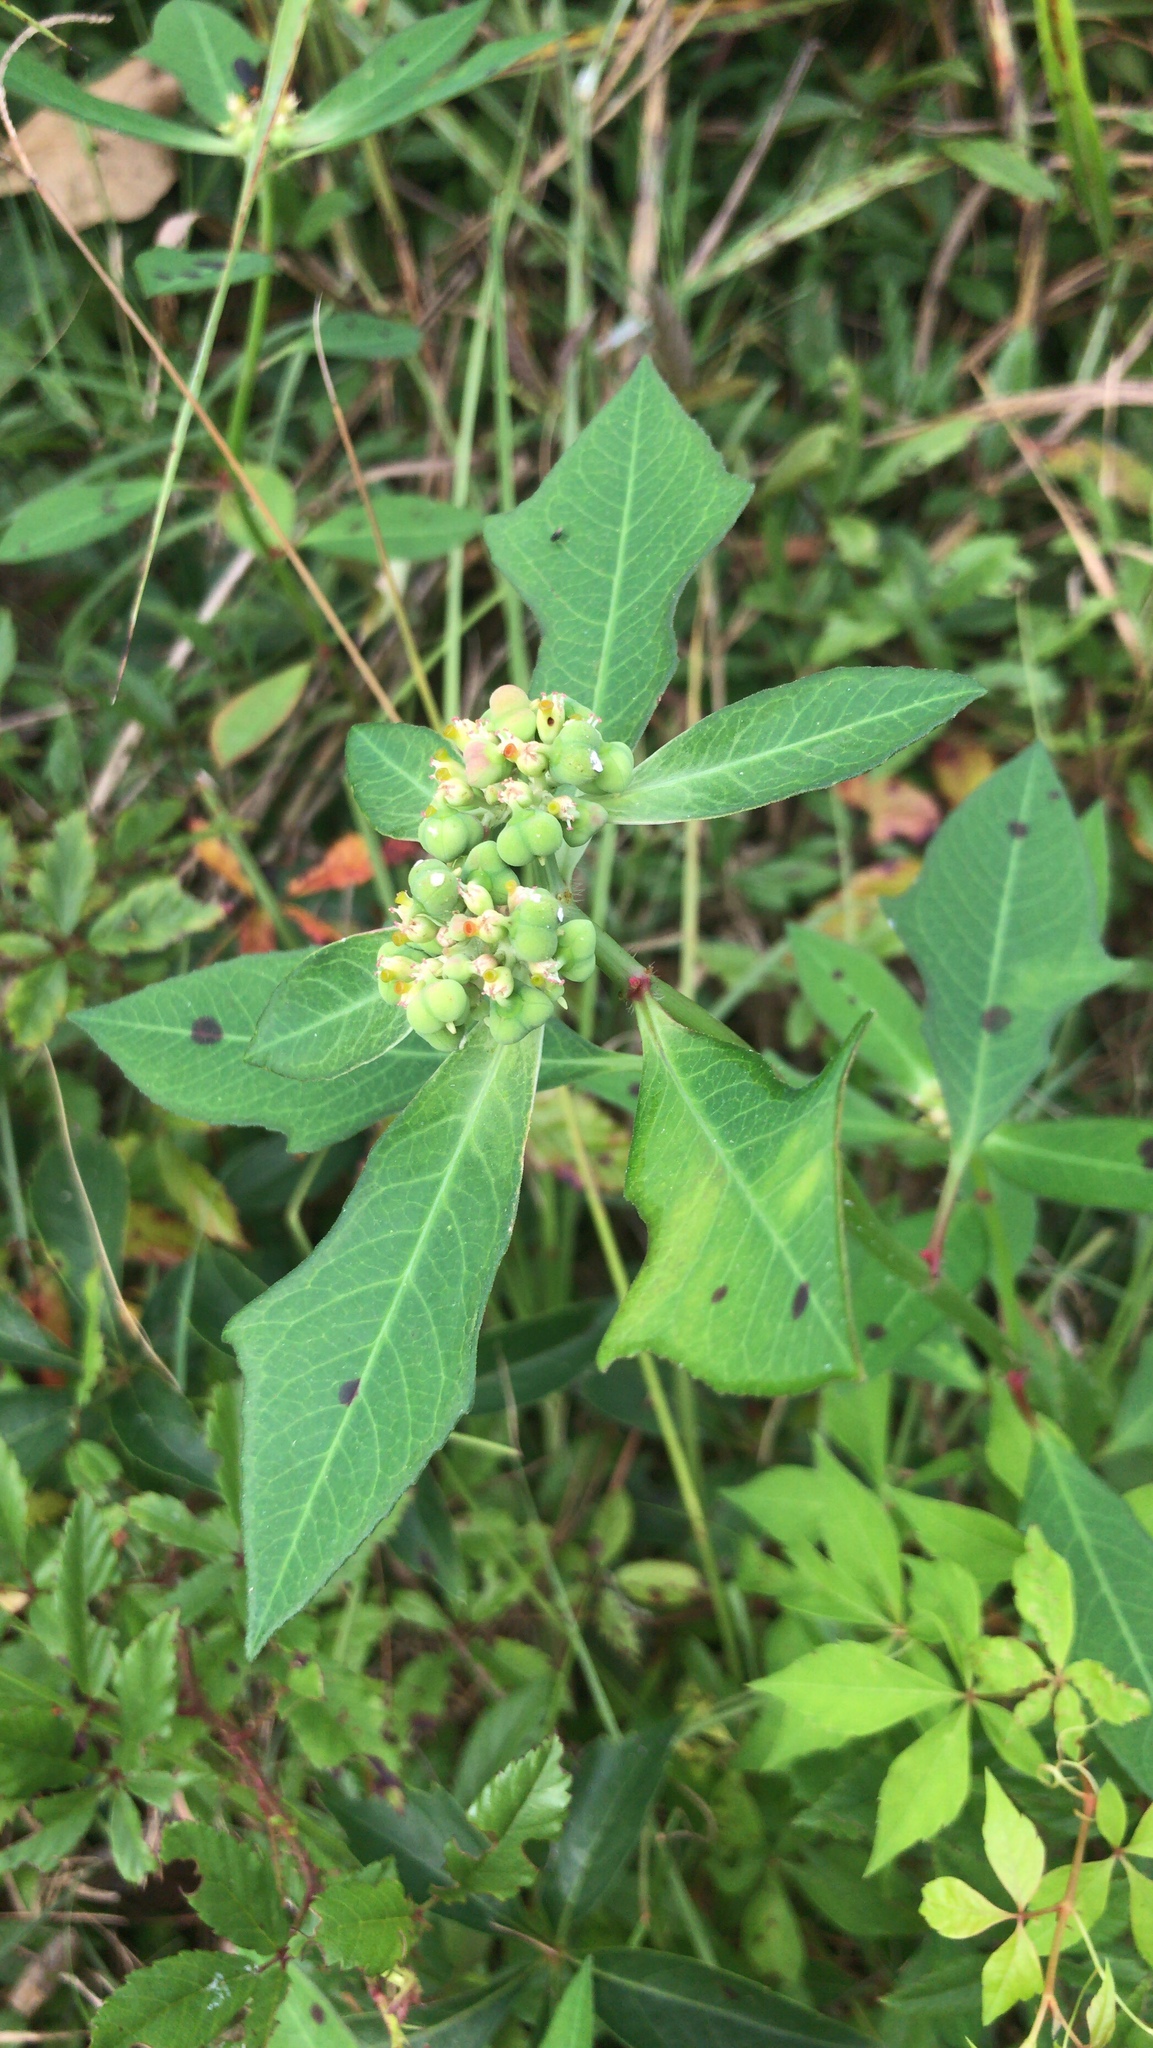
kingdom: Plantae
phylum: Tracheophyta
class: Magnoliopsida
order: Malpighiales
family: Euphorbiaceae
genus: Euphorbia
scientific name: Euphorbia heterophylla
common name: Mexican fireplant
